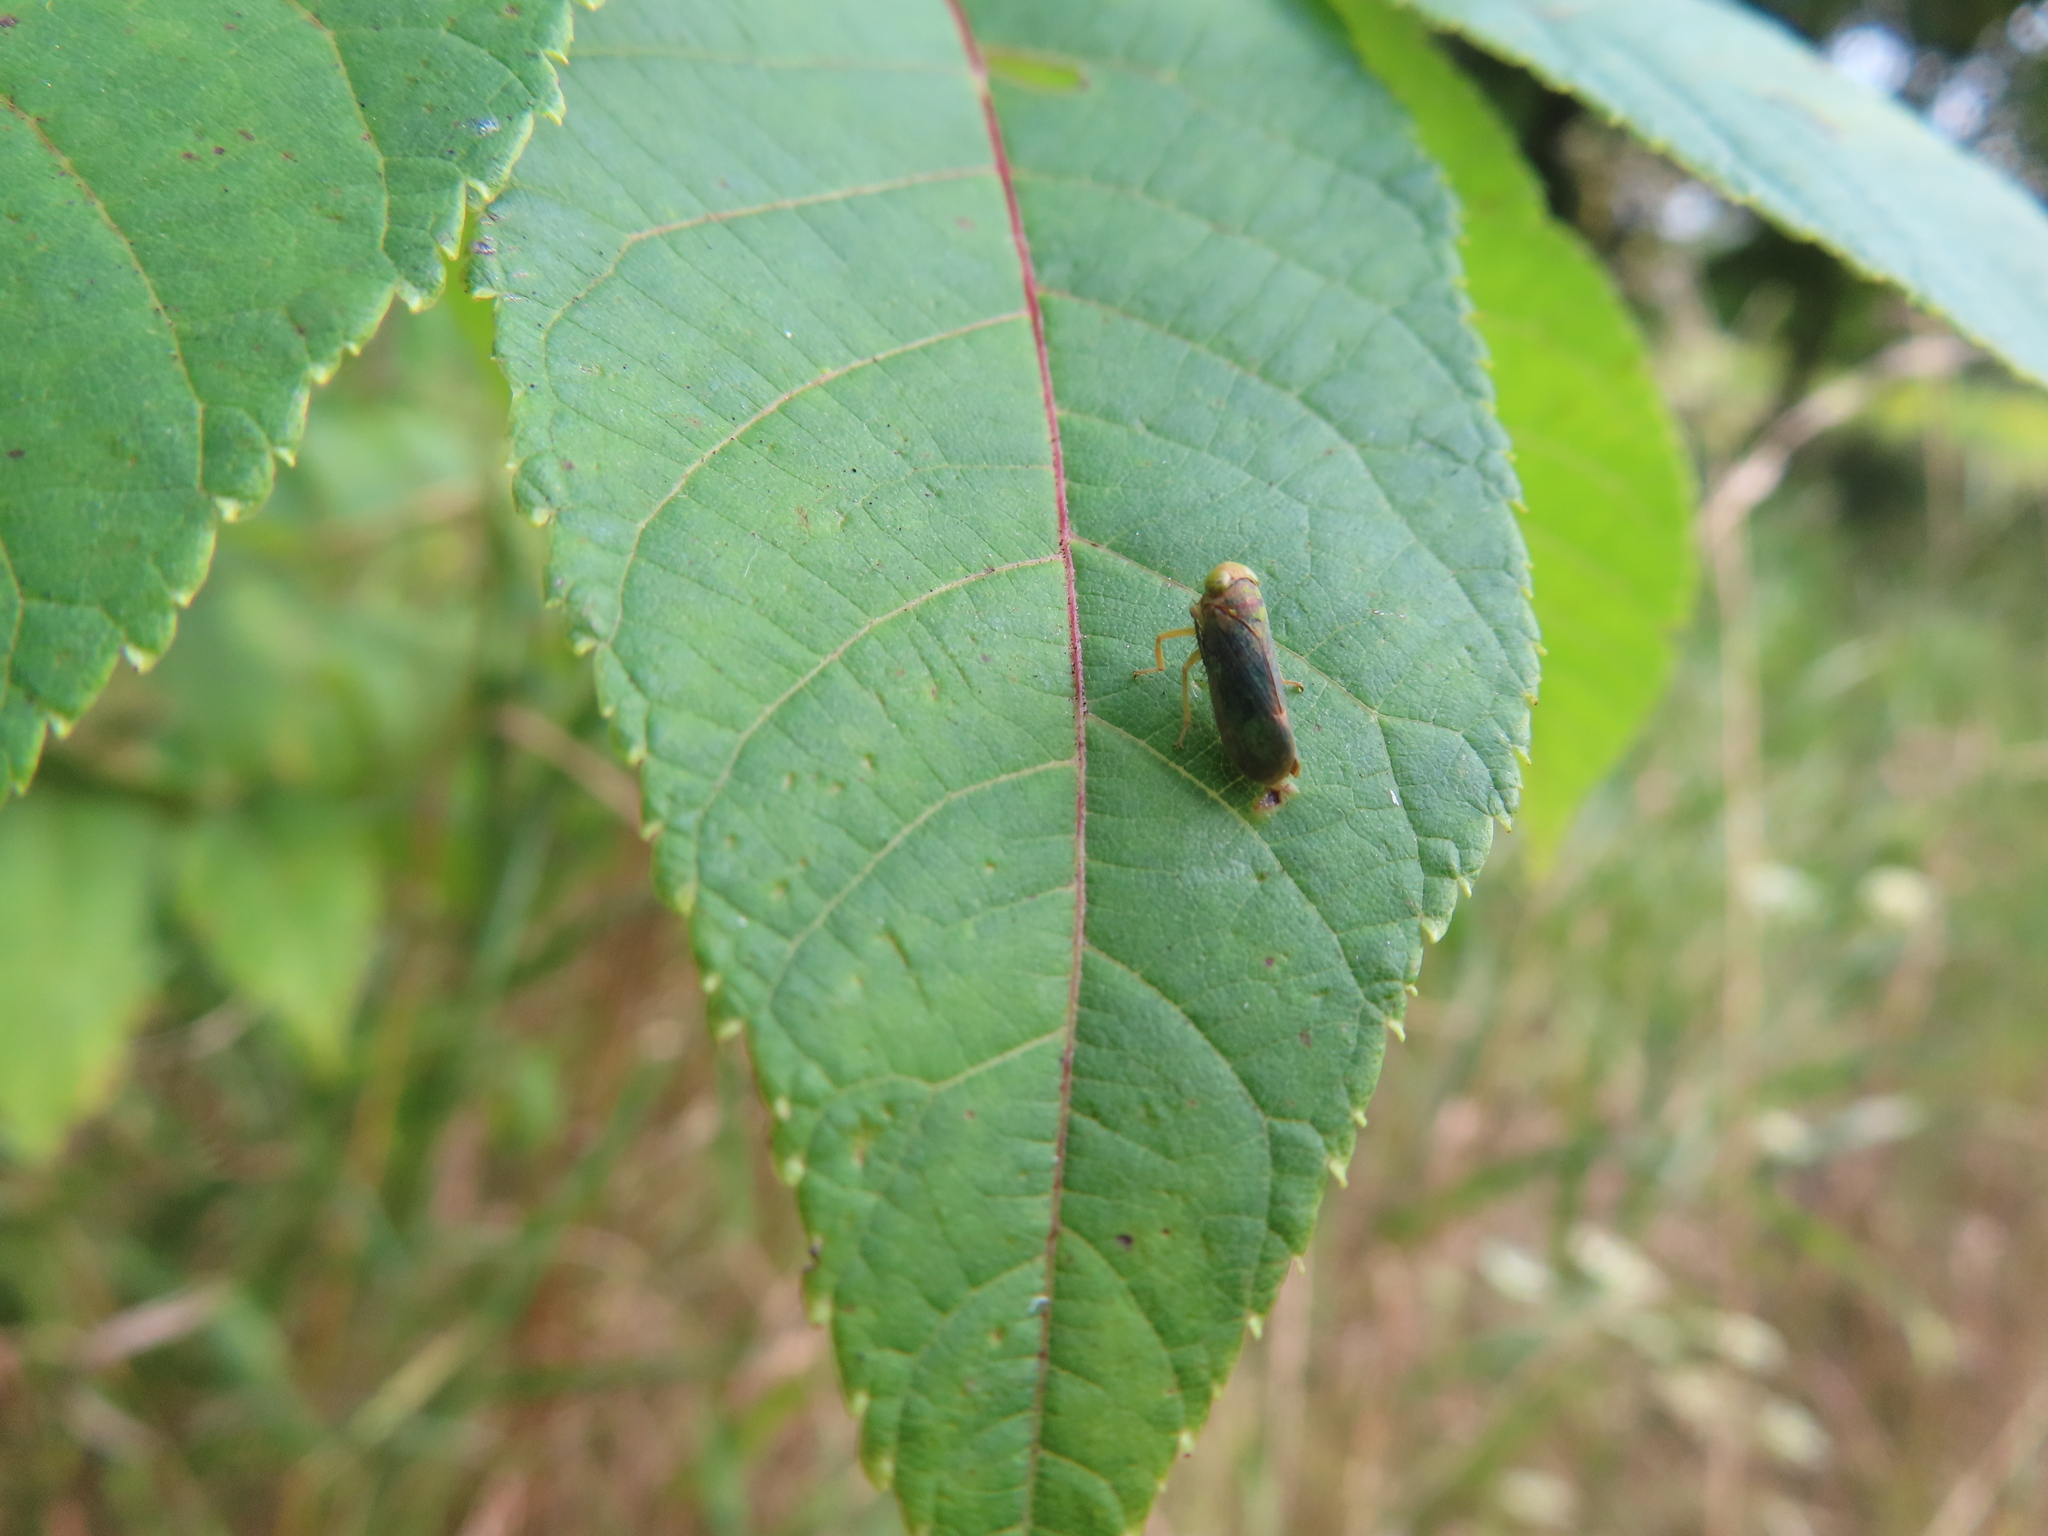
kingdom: Animalia
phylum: Arthropoda
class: Insecta
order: Hemiptera
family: Cicadellidae
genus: Jikradia
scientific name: Jikradia olitoria
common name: Coppery leafhopper
